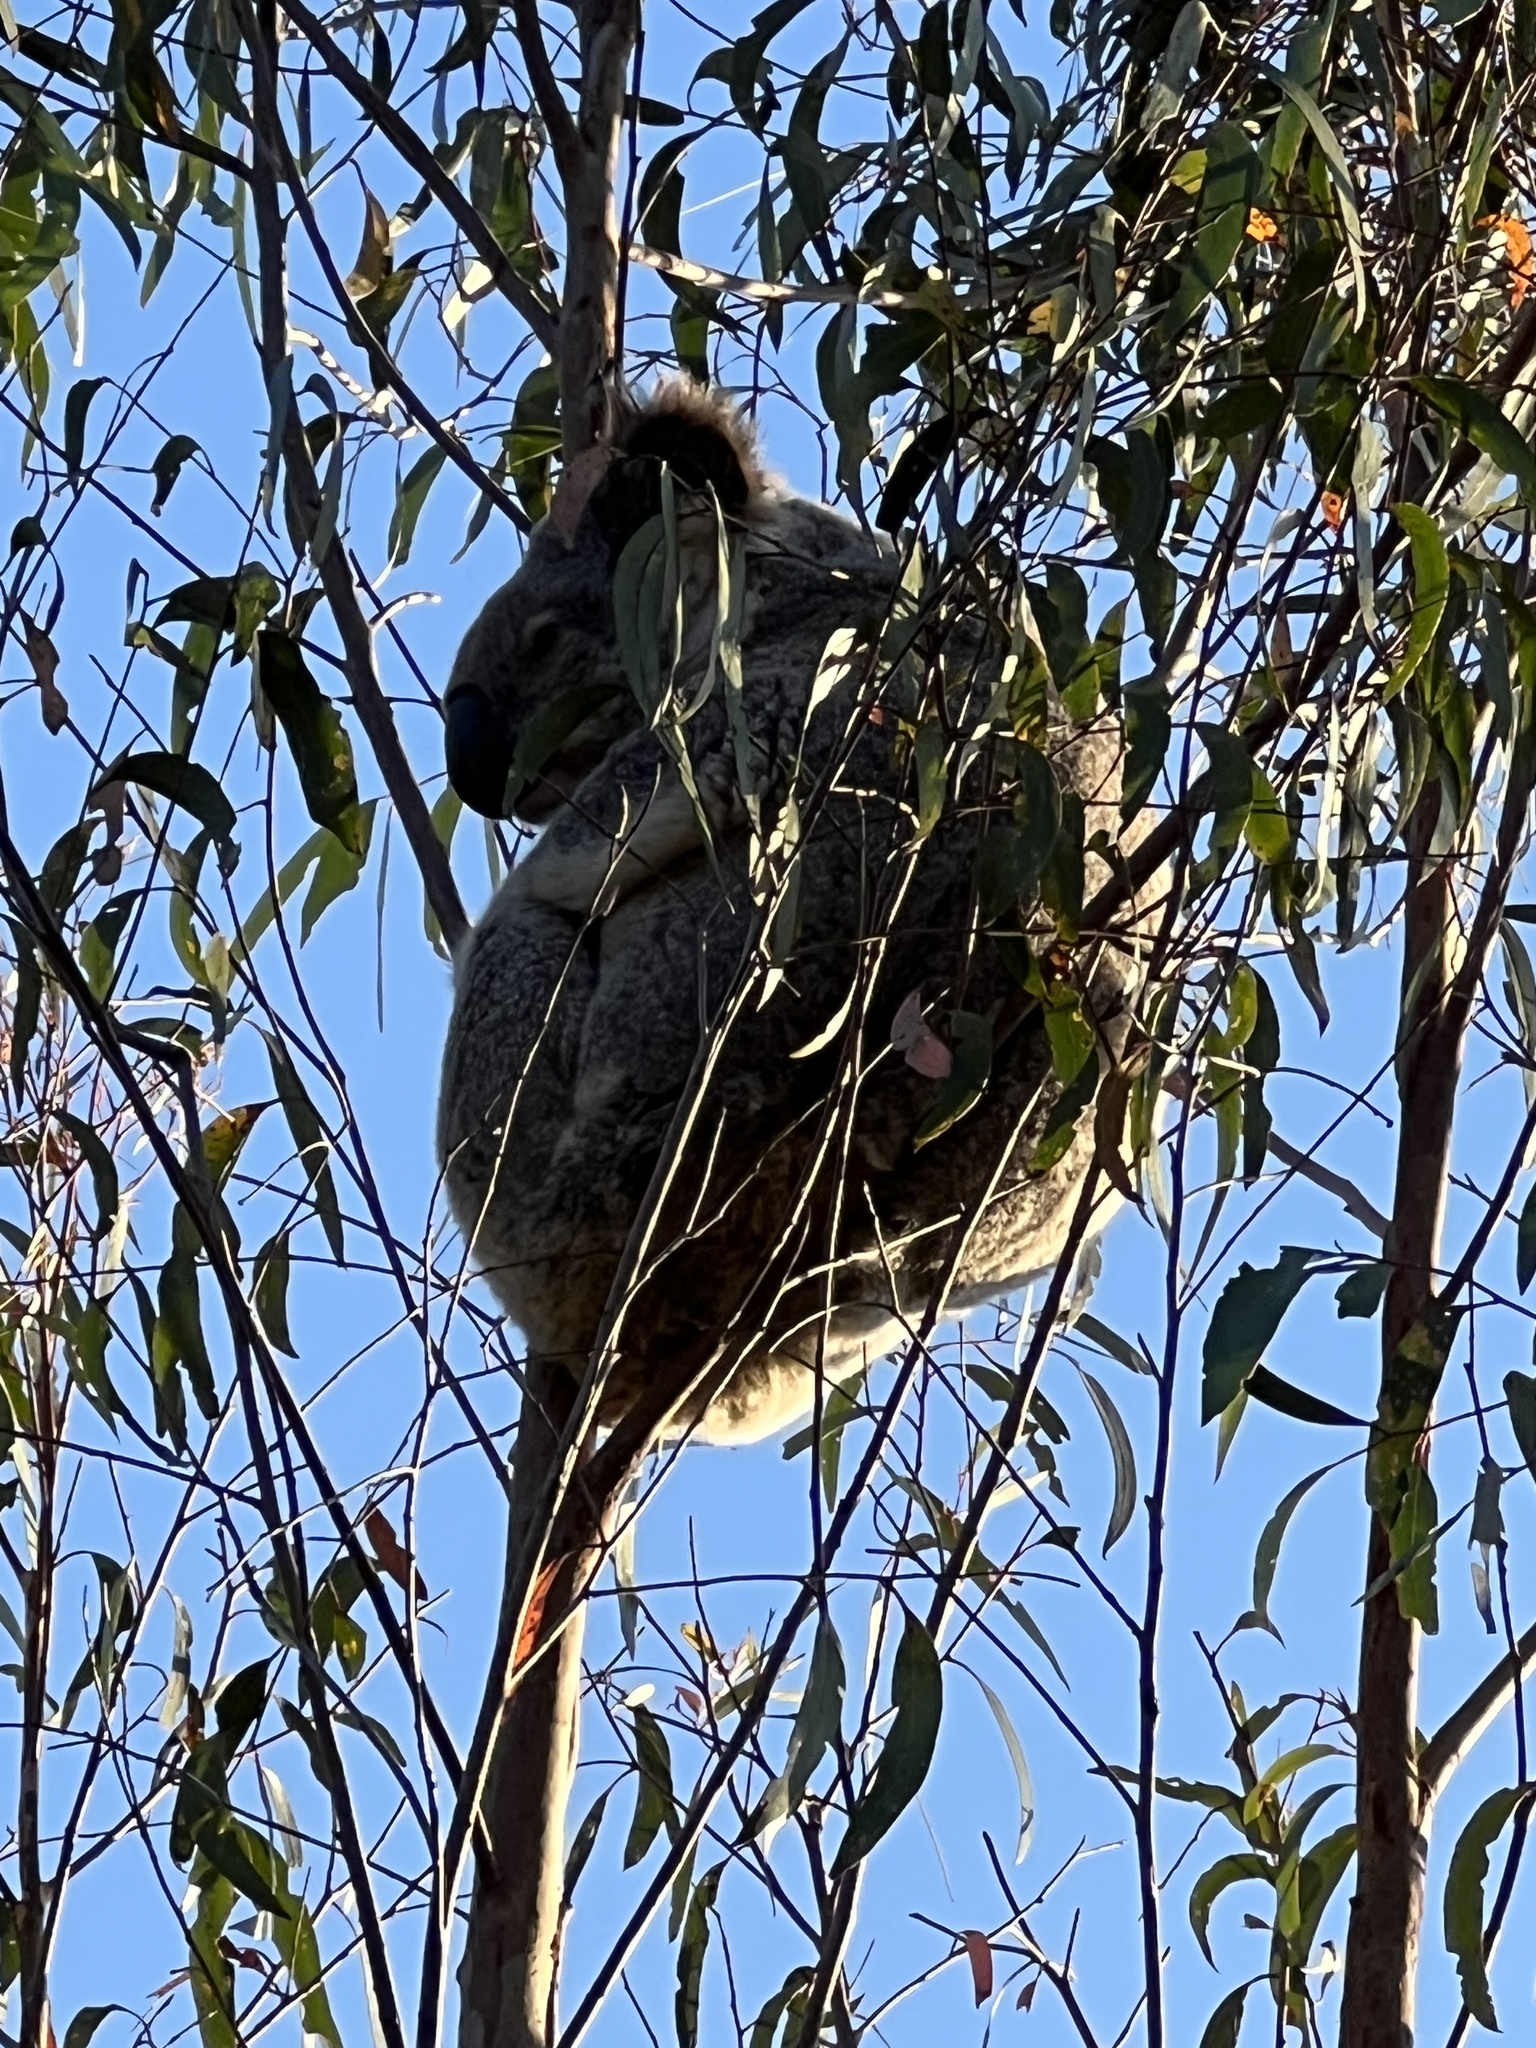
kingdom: Animalia
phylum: Chordata
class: Mammalia
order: Diprotodontia
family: Phascolarctidae
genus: Phascolarctos
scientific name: Phascolarctos cinereus
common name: Koala
